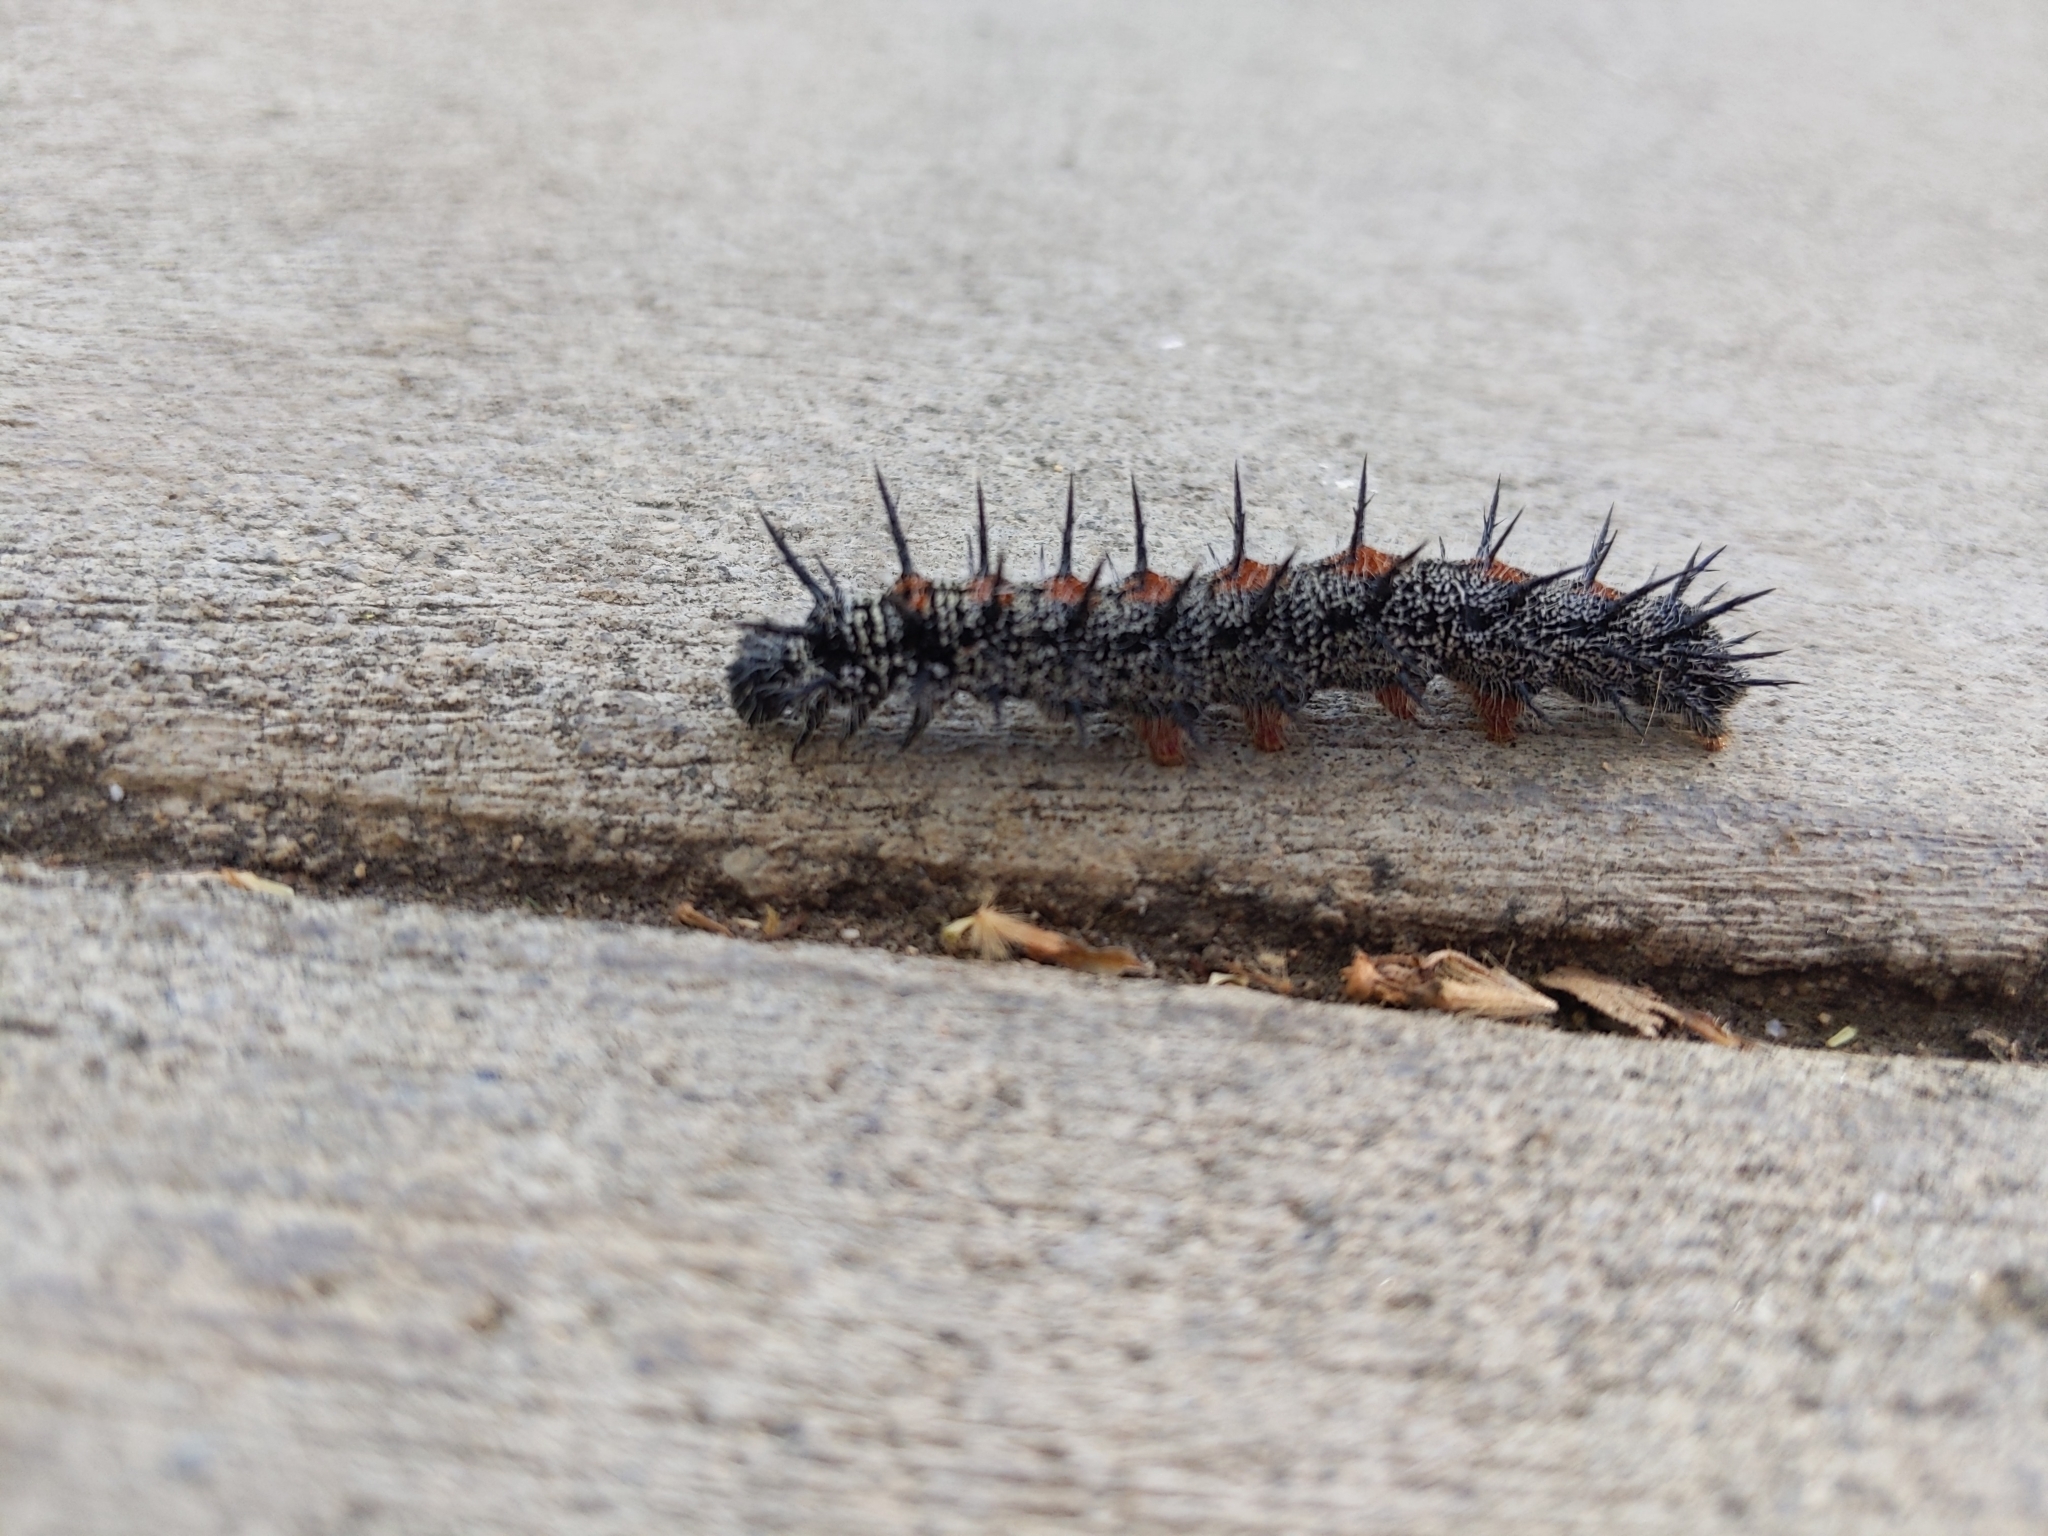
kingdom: Animalia
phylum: Arthropoda
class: Insecta
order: Lepidoptera
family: Nymphalidae
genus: Nymphalis
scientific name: Nymphalis antiopa
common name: Camberwell beauty
